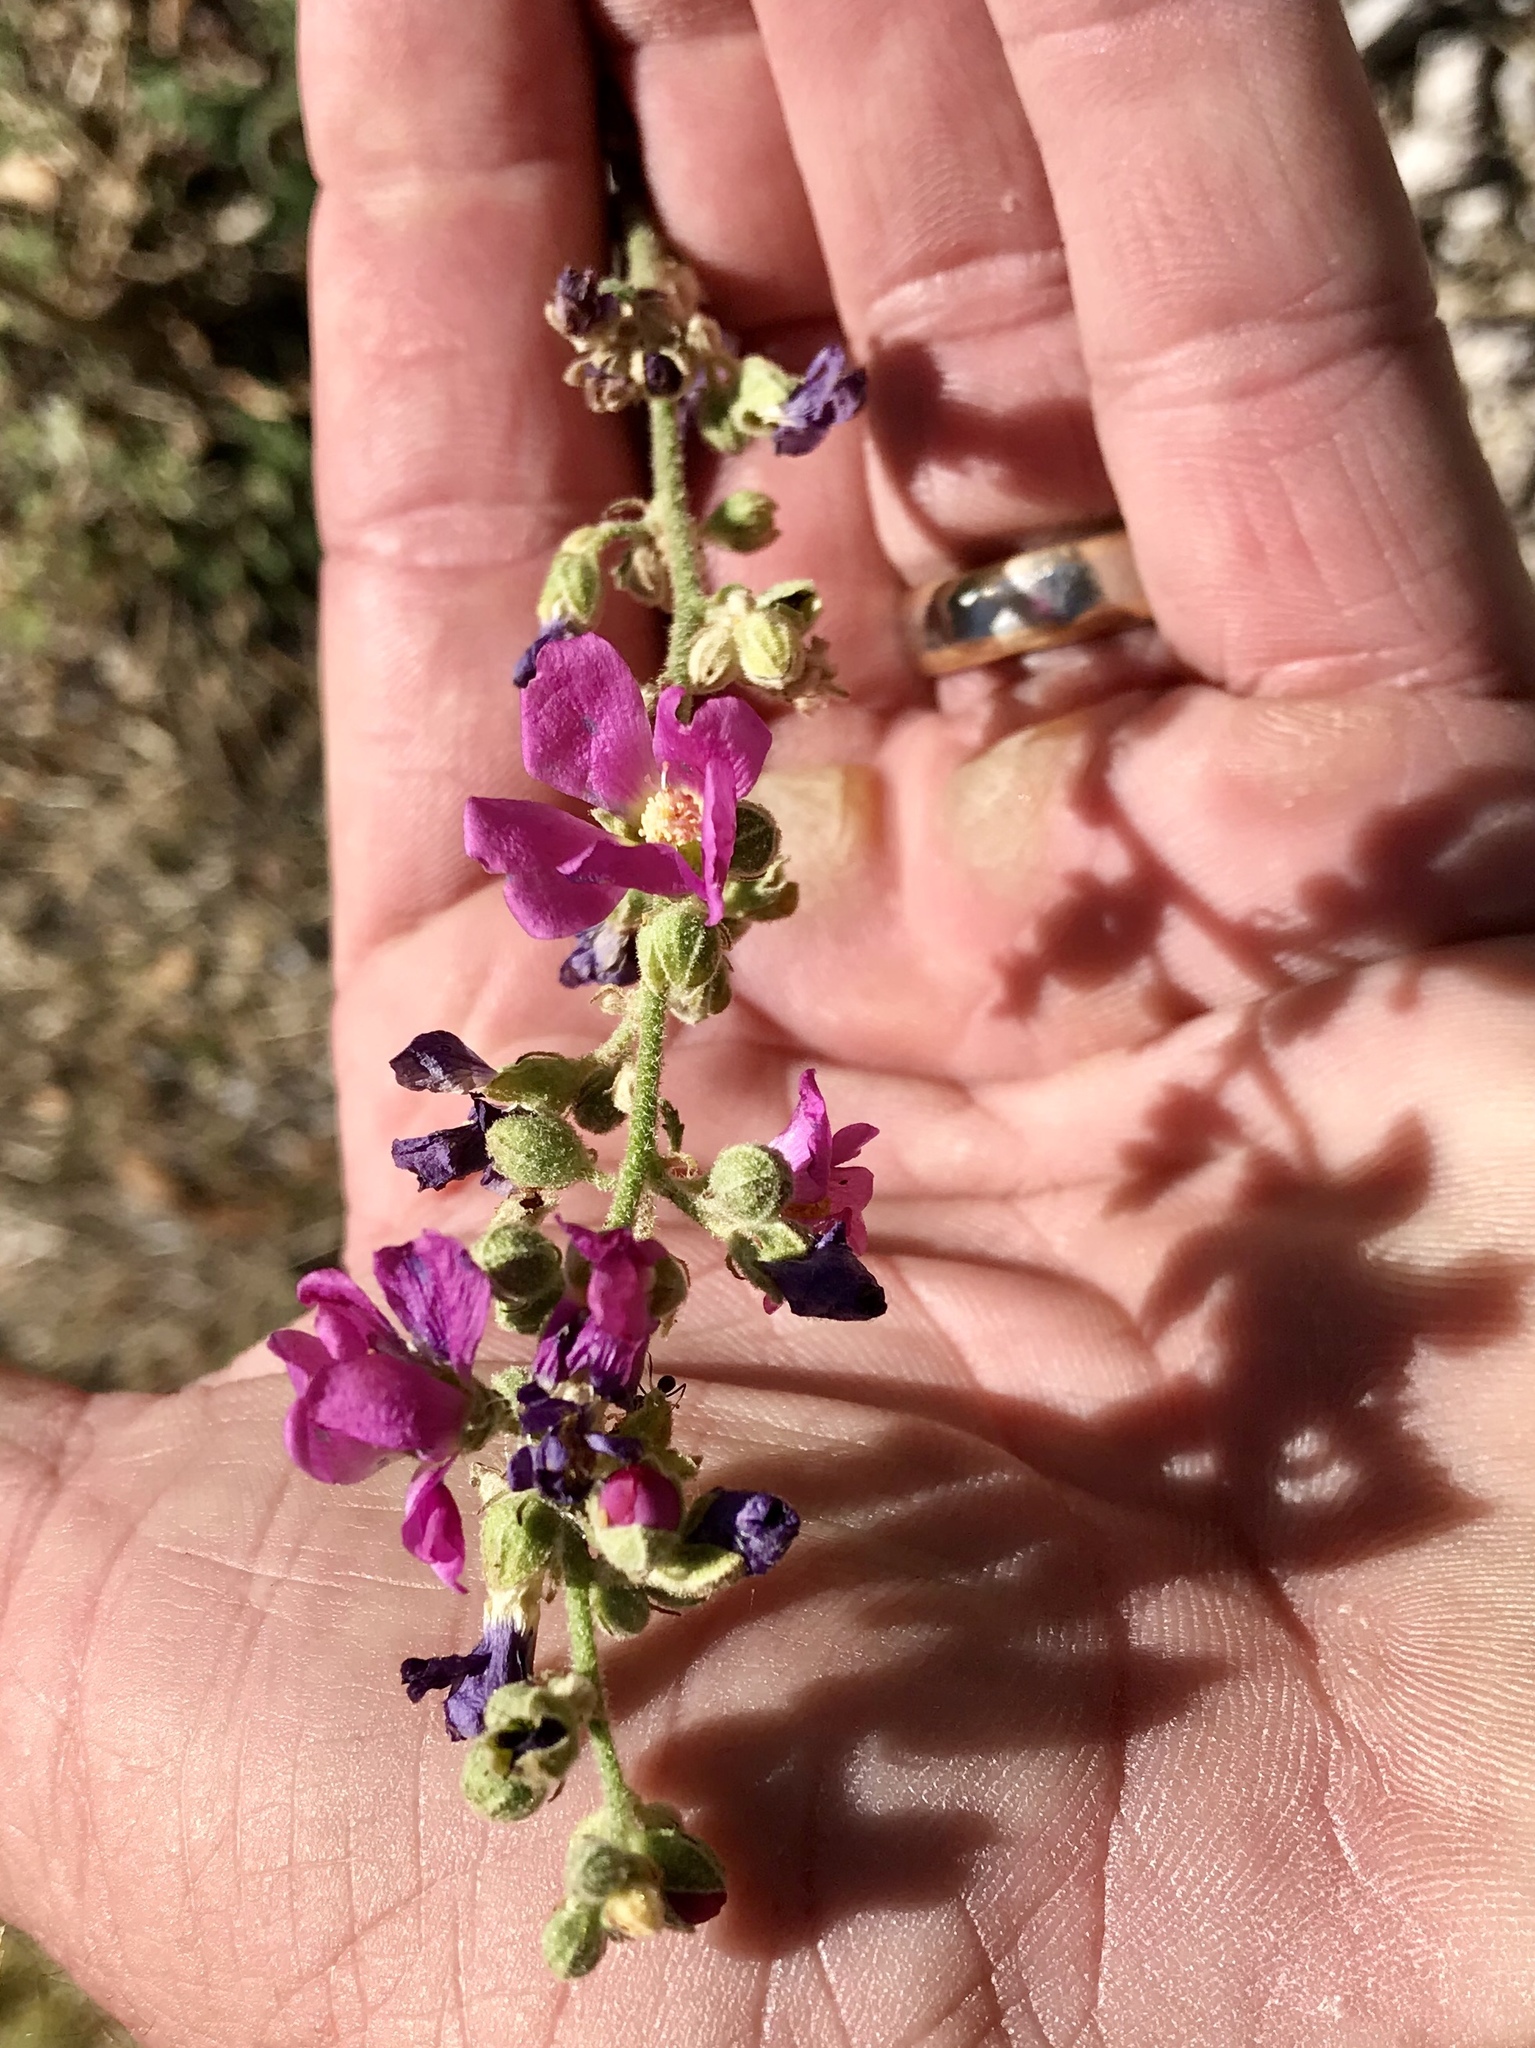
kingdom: Plantae
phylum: Tracheophyta
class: Magnoliopsida
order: Malvales
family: Malvaceae
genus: Sphaeralcea
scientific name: Sphaeralcea fendleri
